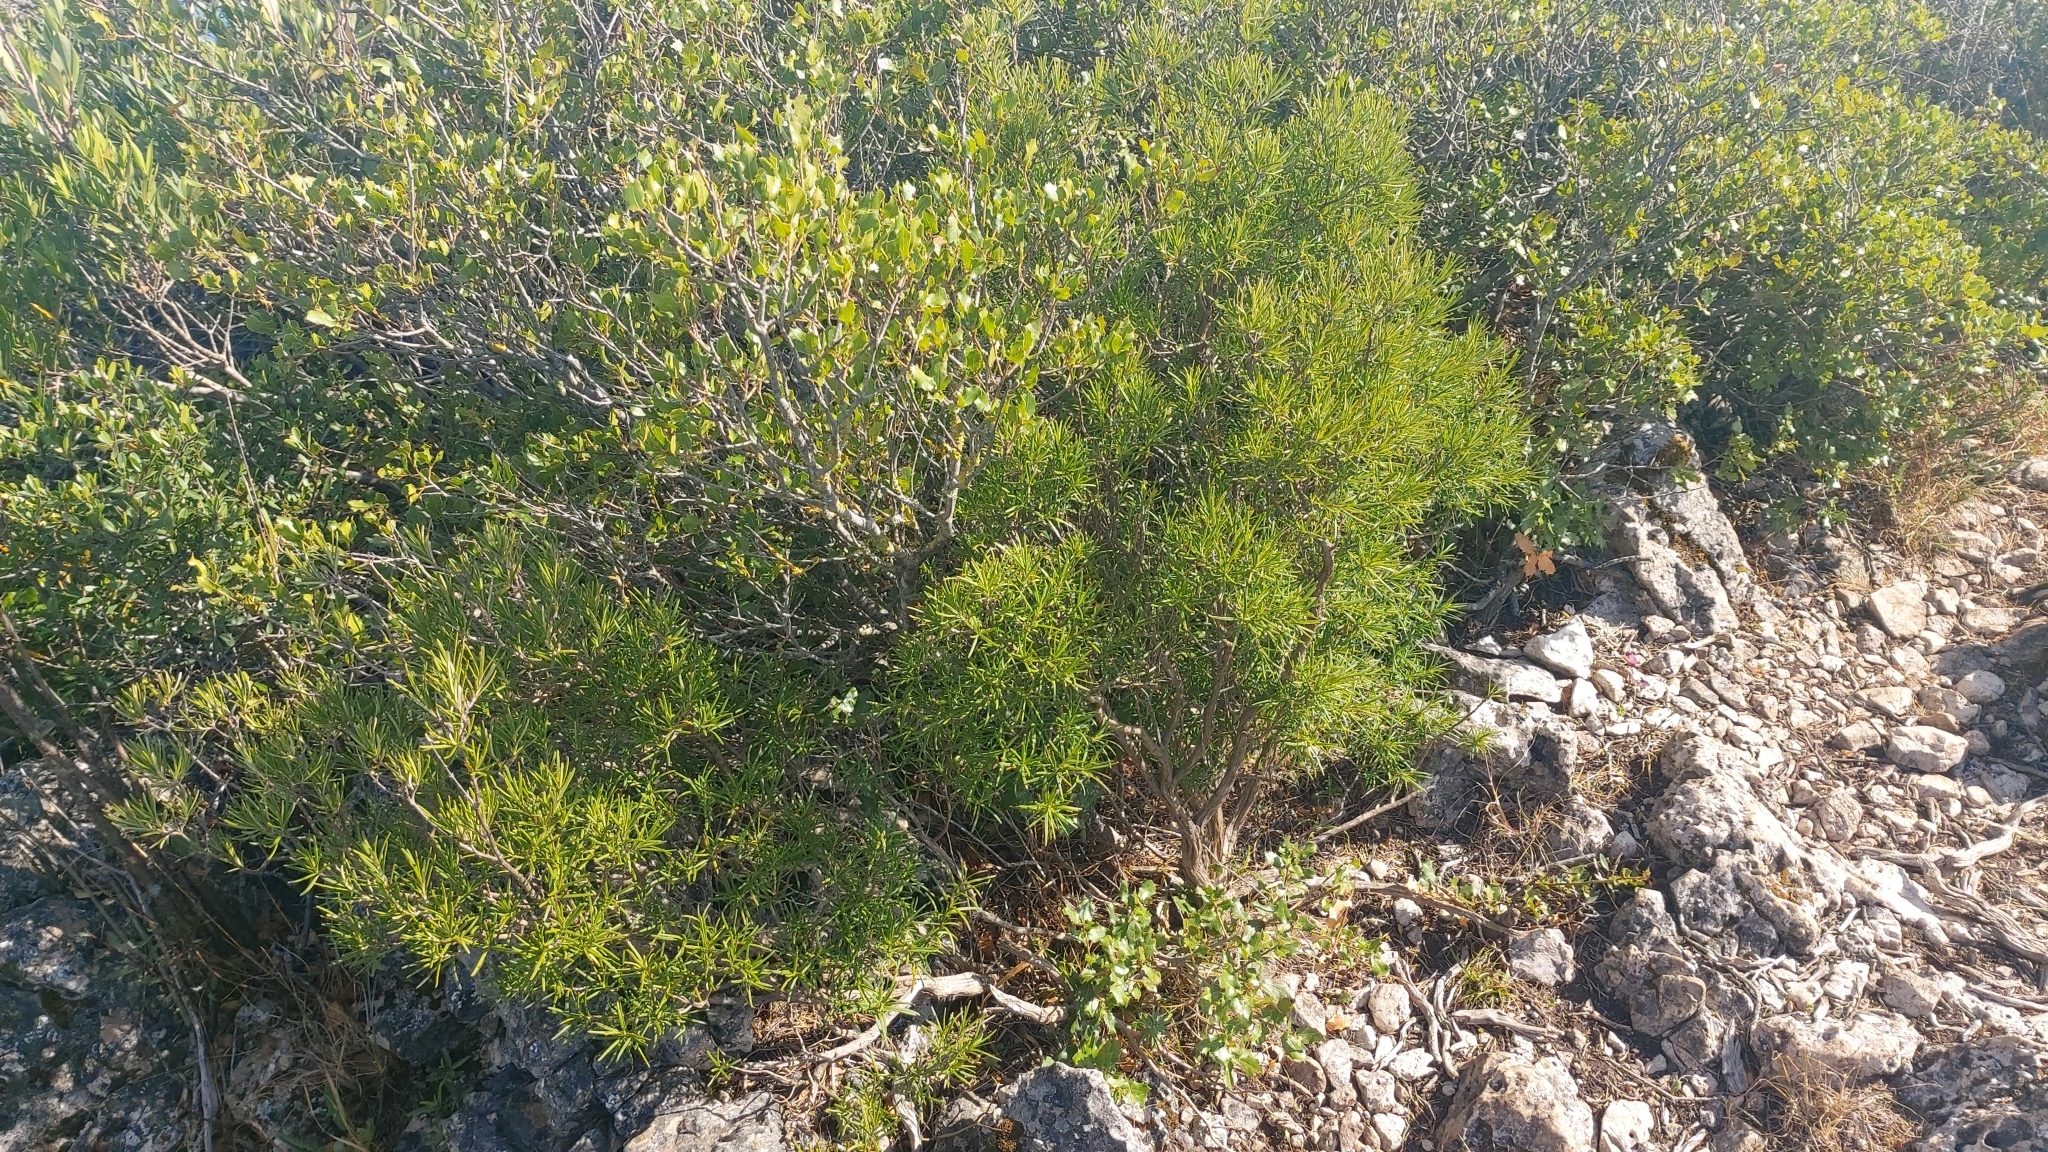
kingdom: Plantae
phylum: Tracheophyta
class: Magnoliopsida
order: Lamiales
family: Lamiaceae
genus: Salvia
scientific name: Salvia rosmarinus
